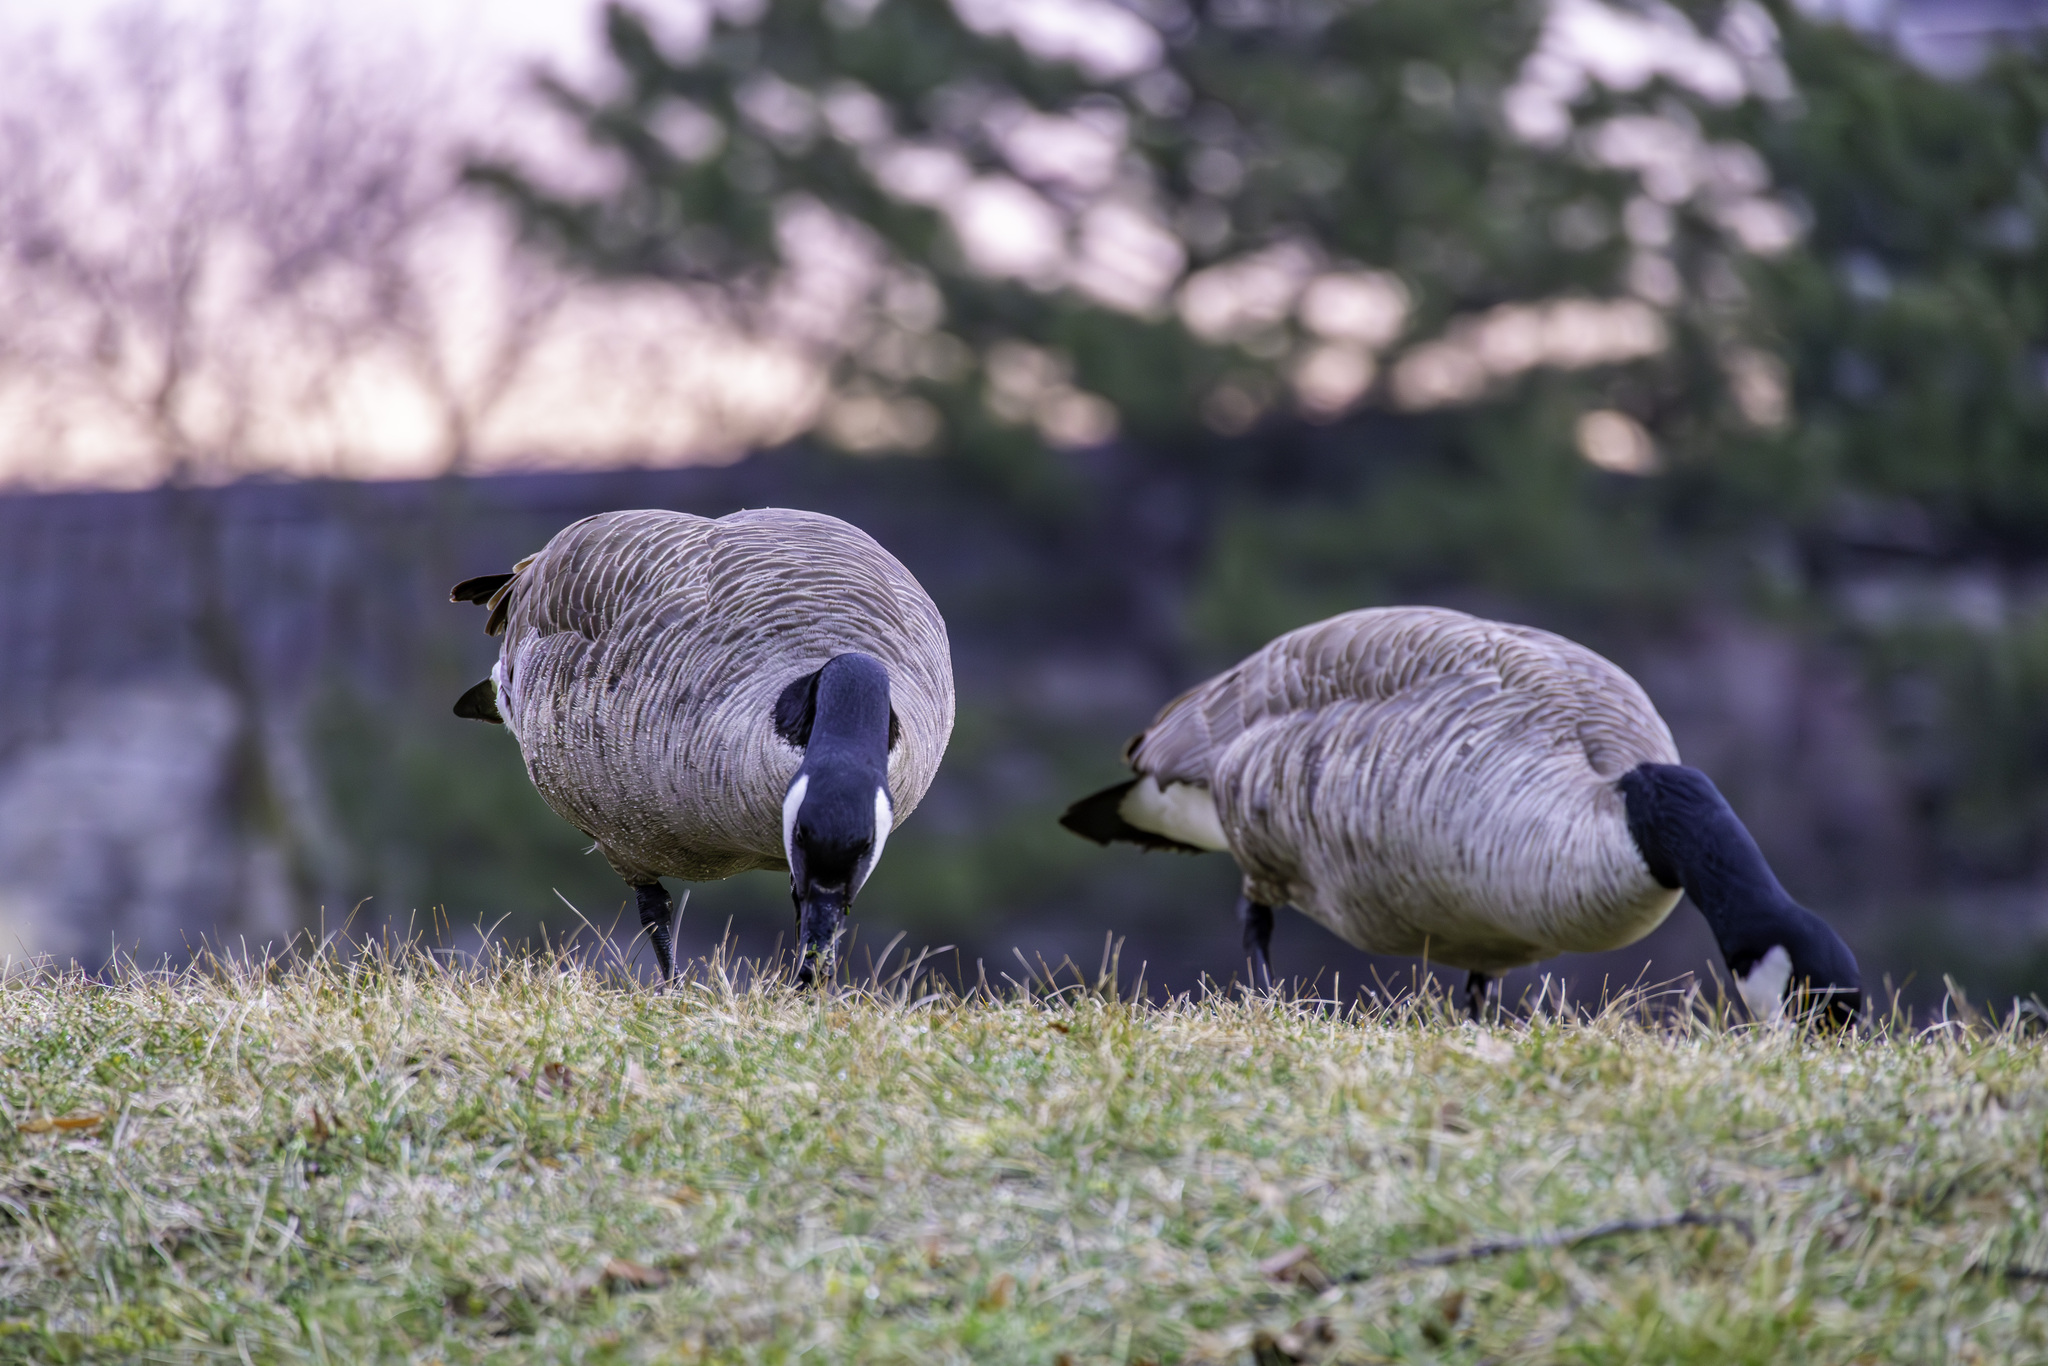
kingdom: Animalia
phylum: Chordata
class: Aves
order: Anseriformes
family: Anatidae
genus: Branta
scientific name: Branta canadensis
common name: Canada goose
